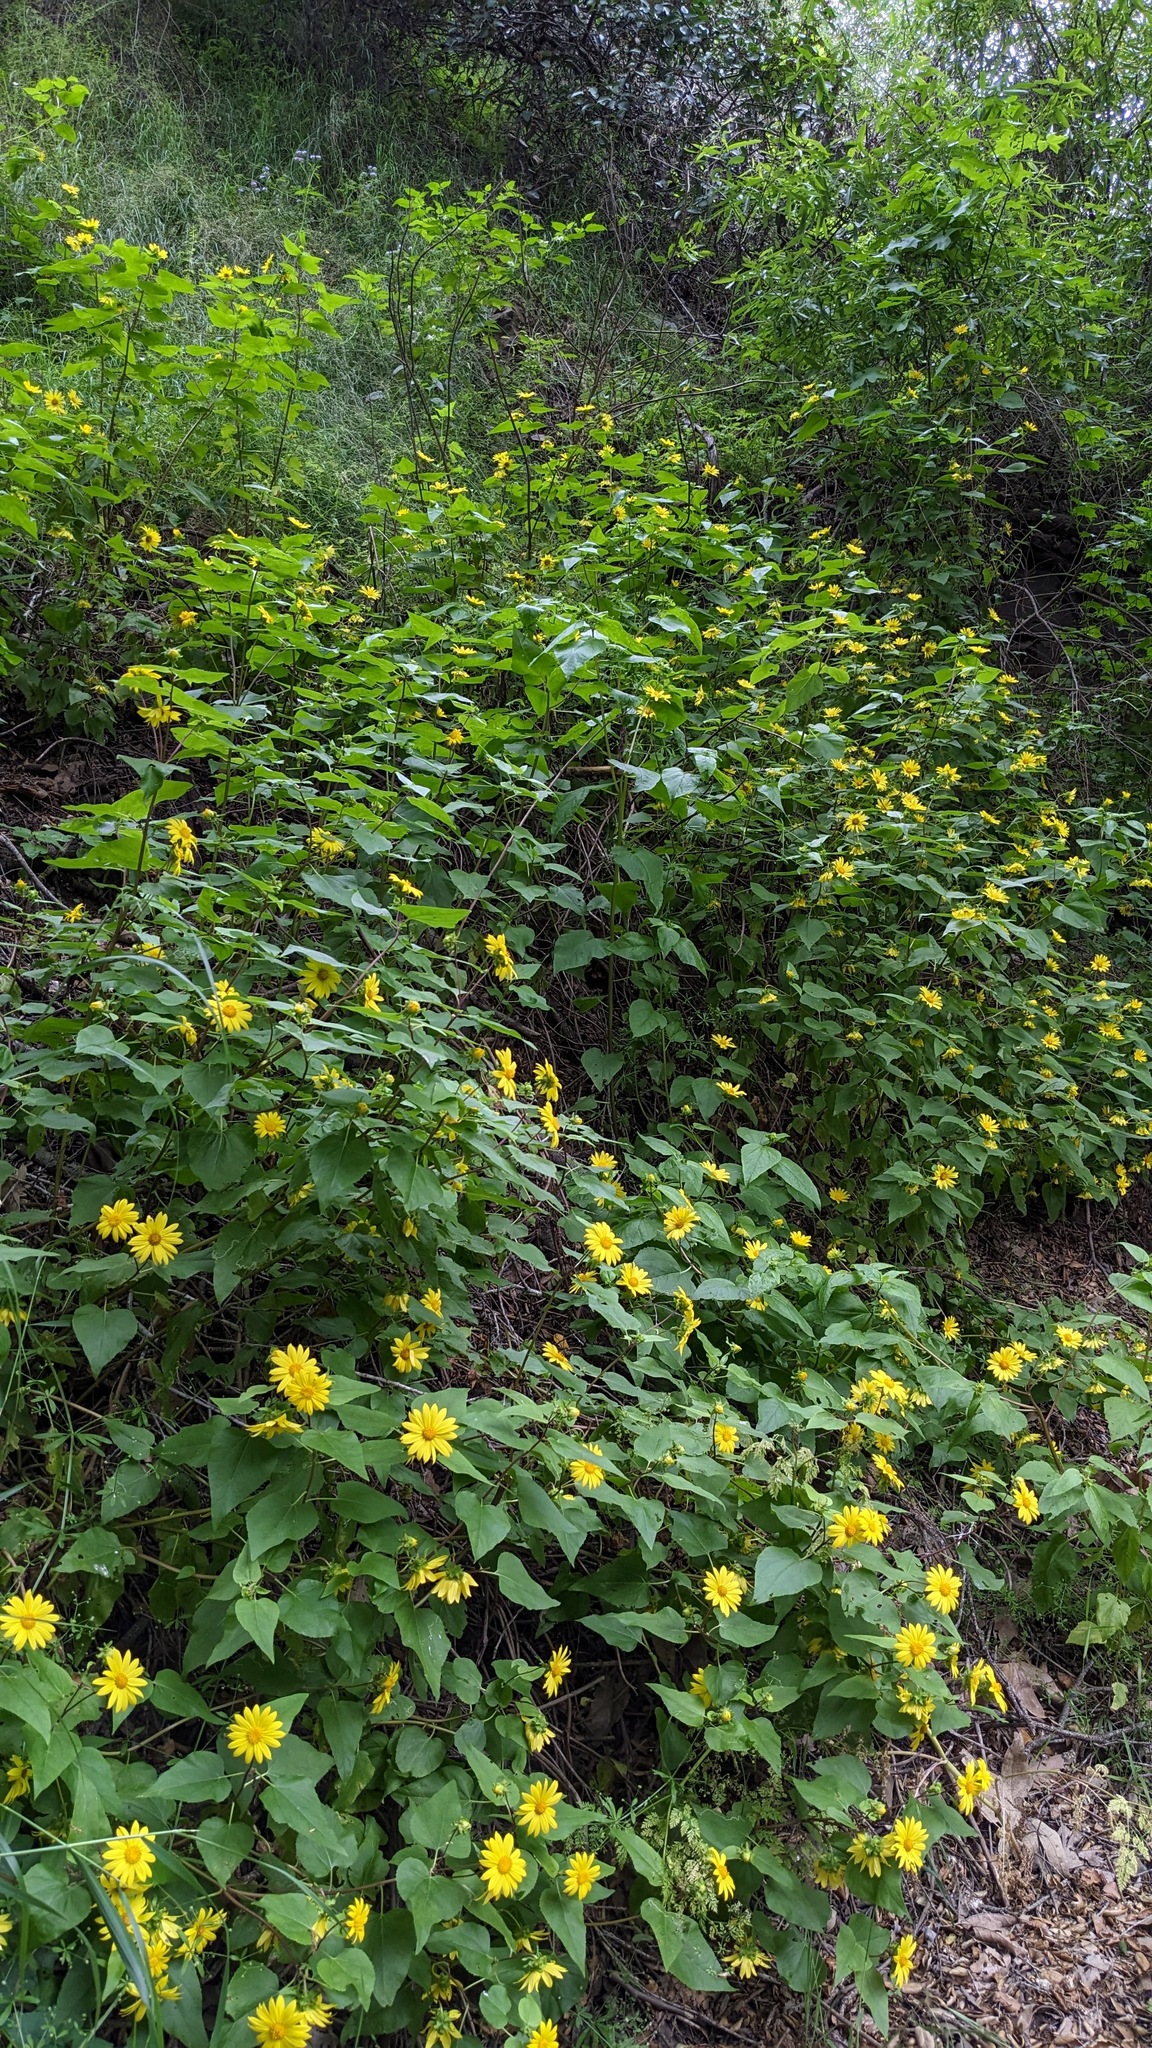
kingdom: Plantae
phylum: Tracheophyta
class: Magnoliopsida
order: Asterales
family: Asteraceae
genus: Venegasia
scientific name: Venegasia carpesioides
